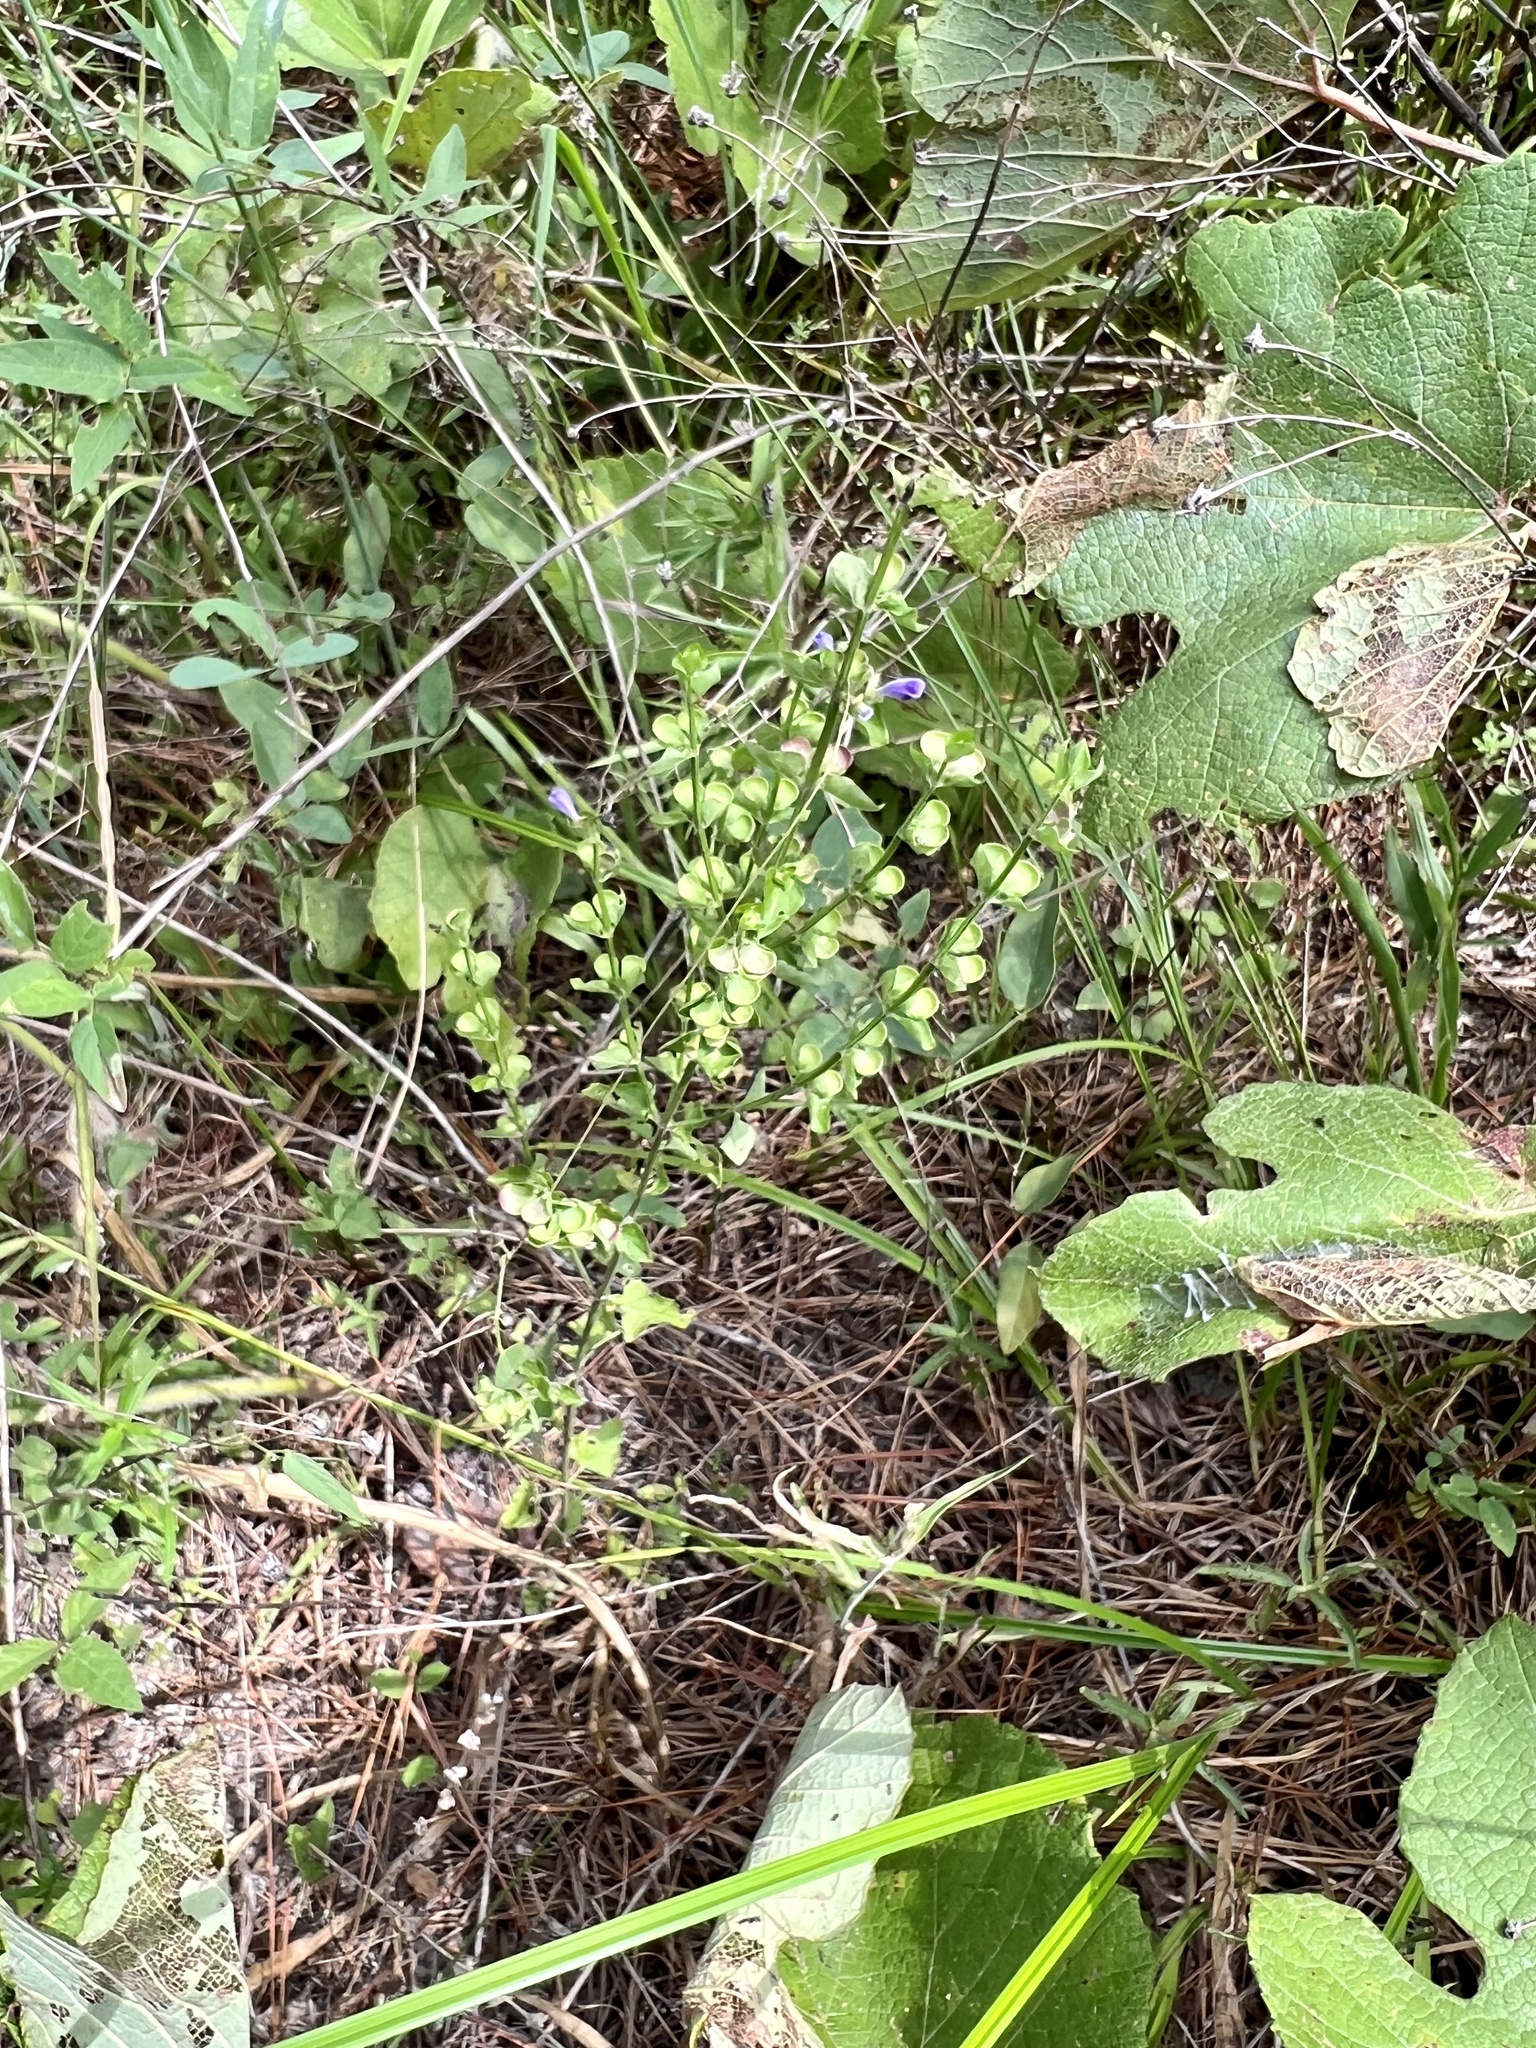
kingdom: Plantae
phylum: Tracheophyta
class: Magnoliopsida
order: Lamiales
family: Lamiaceae
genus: Scutellaria
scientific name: Scutellaria cardiophylla
